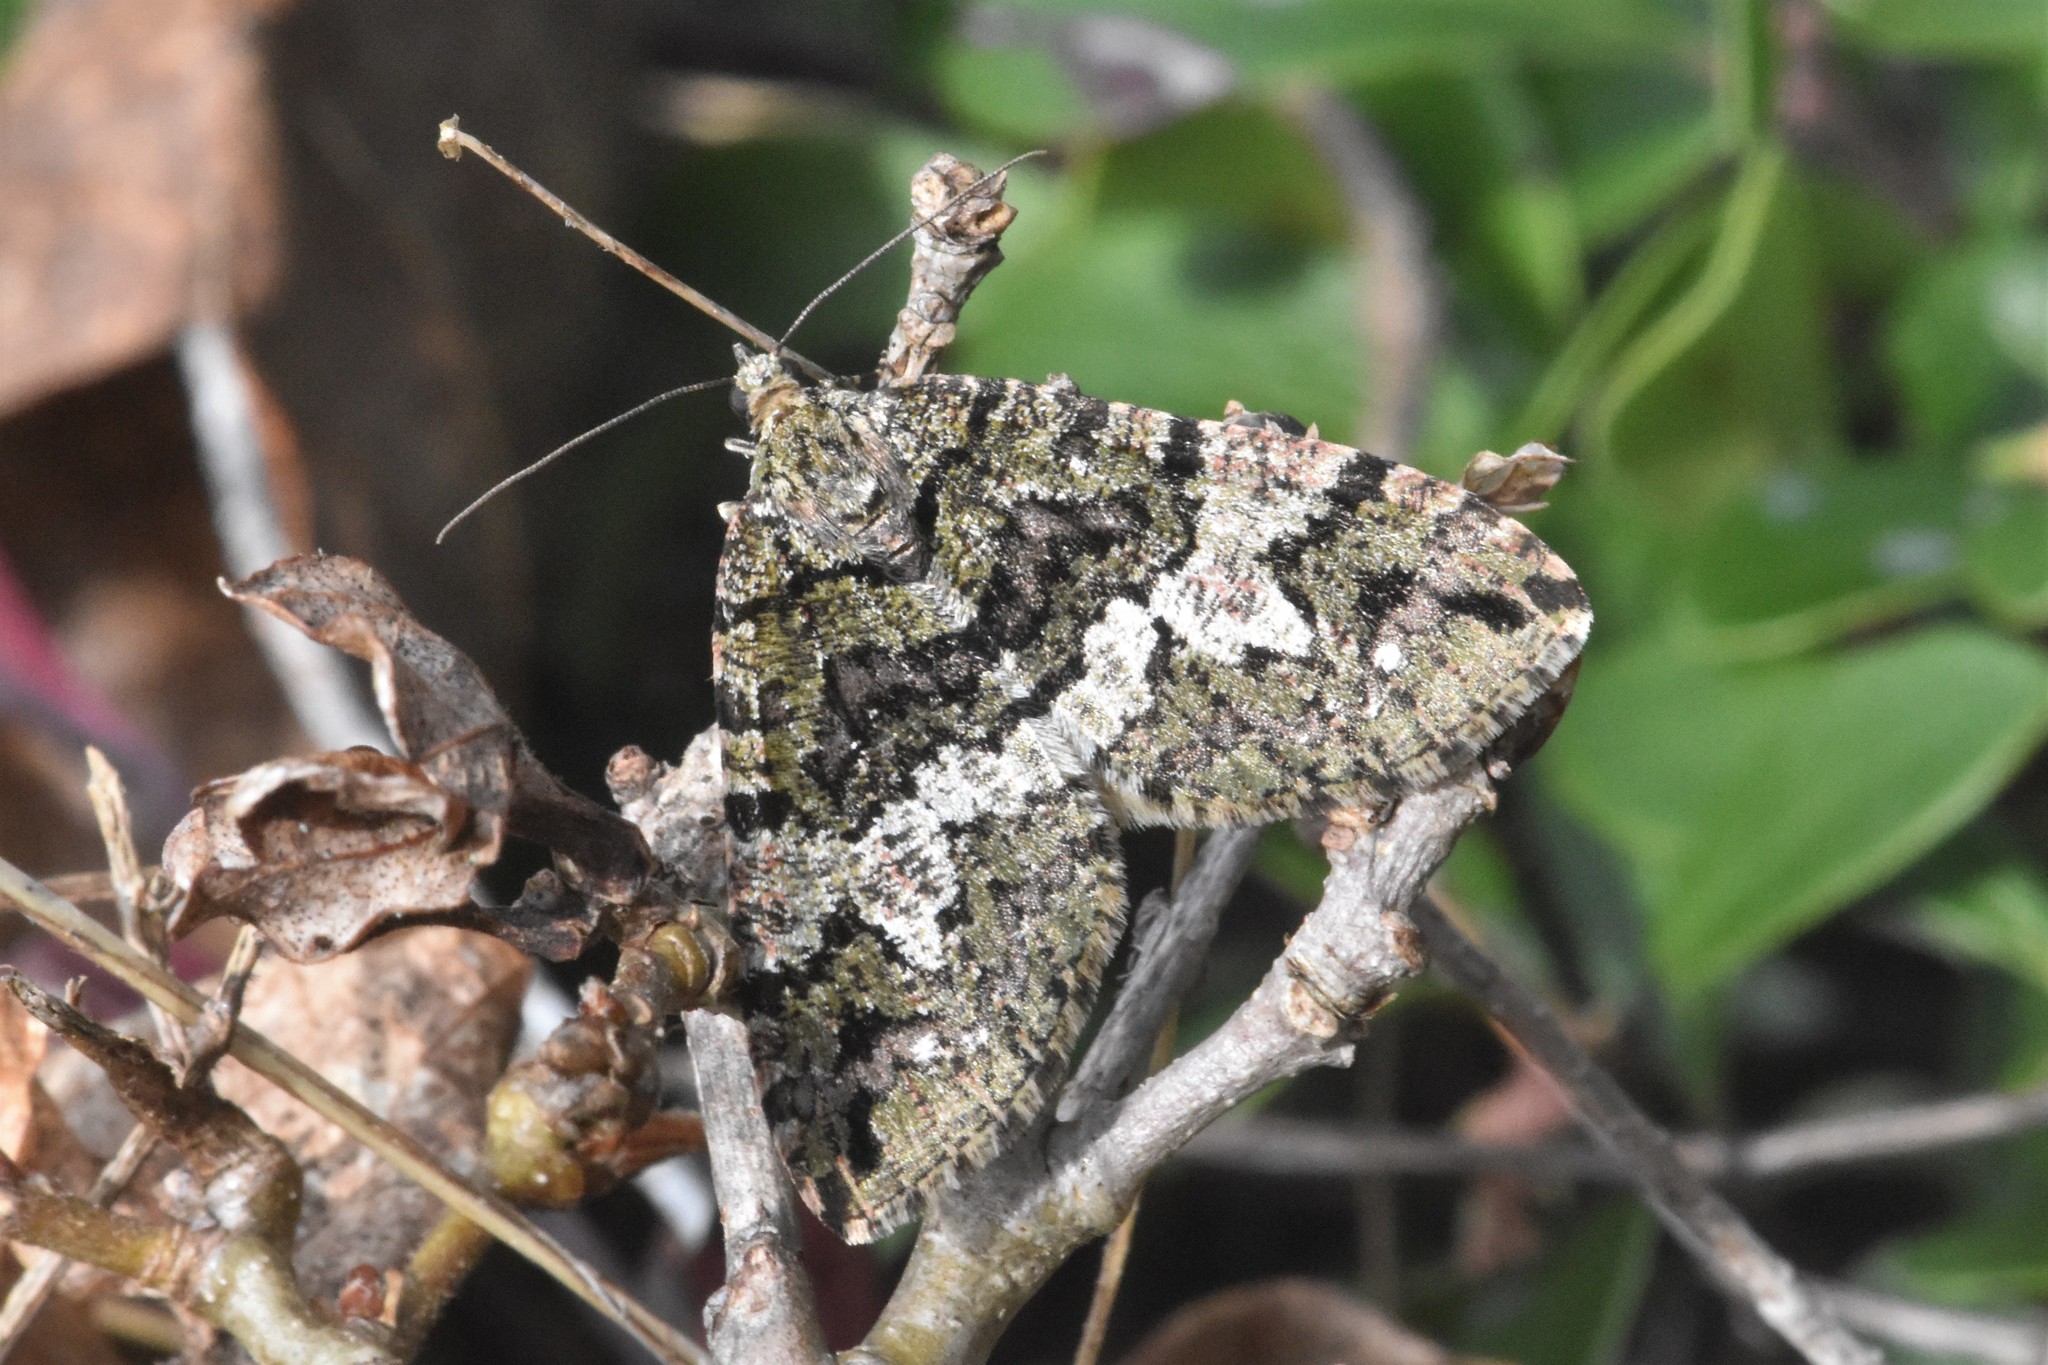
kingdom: Animalia
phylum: Arthropoda
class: Insecta
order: Lepidoptera
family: Geometridae
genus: Hydriomena
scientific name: Hydriomena albifasciata
